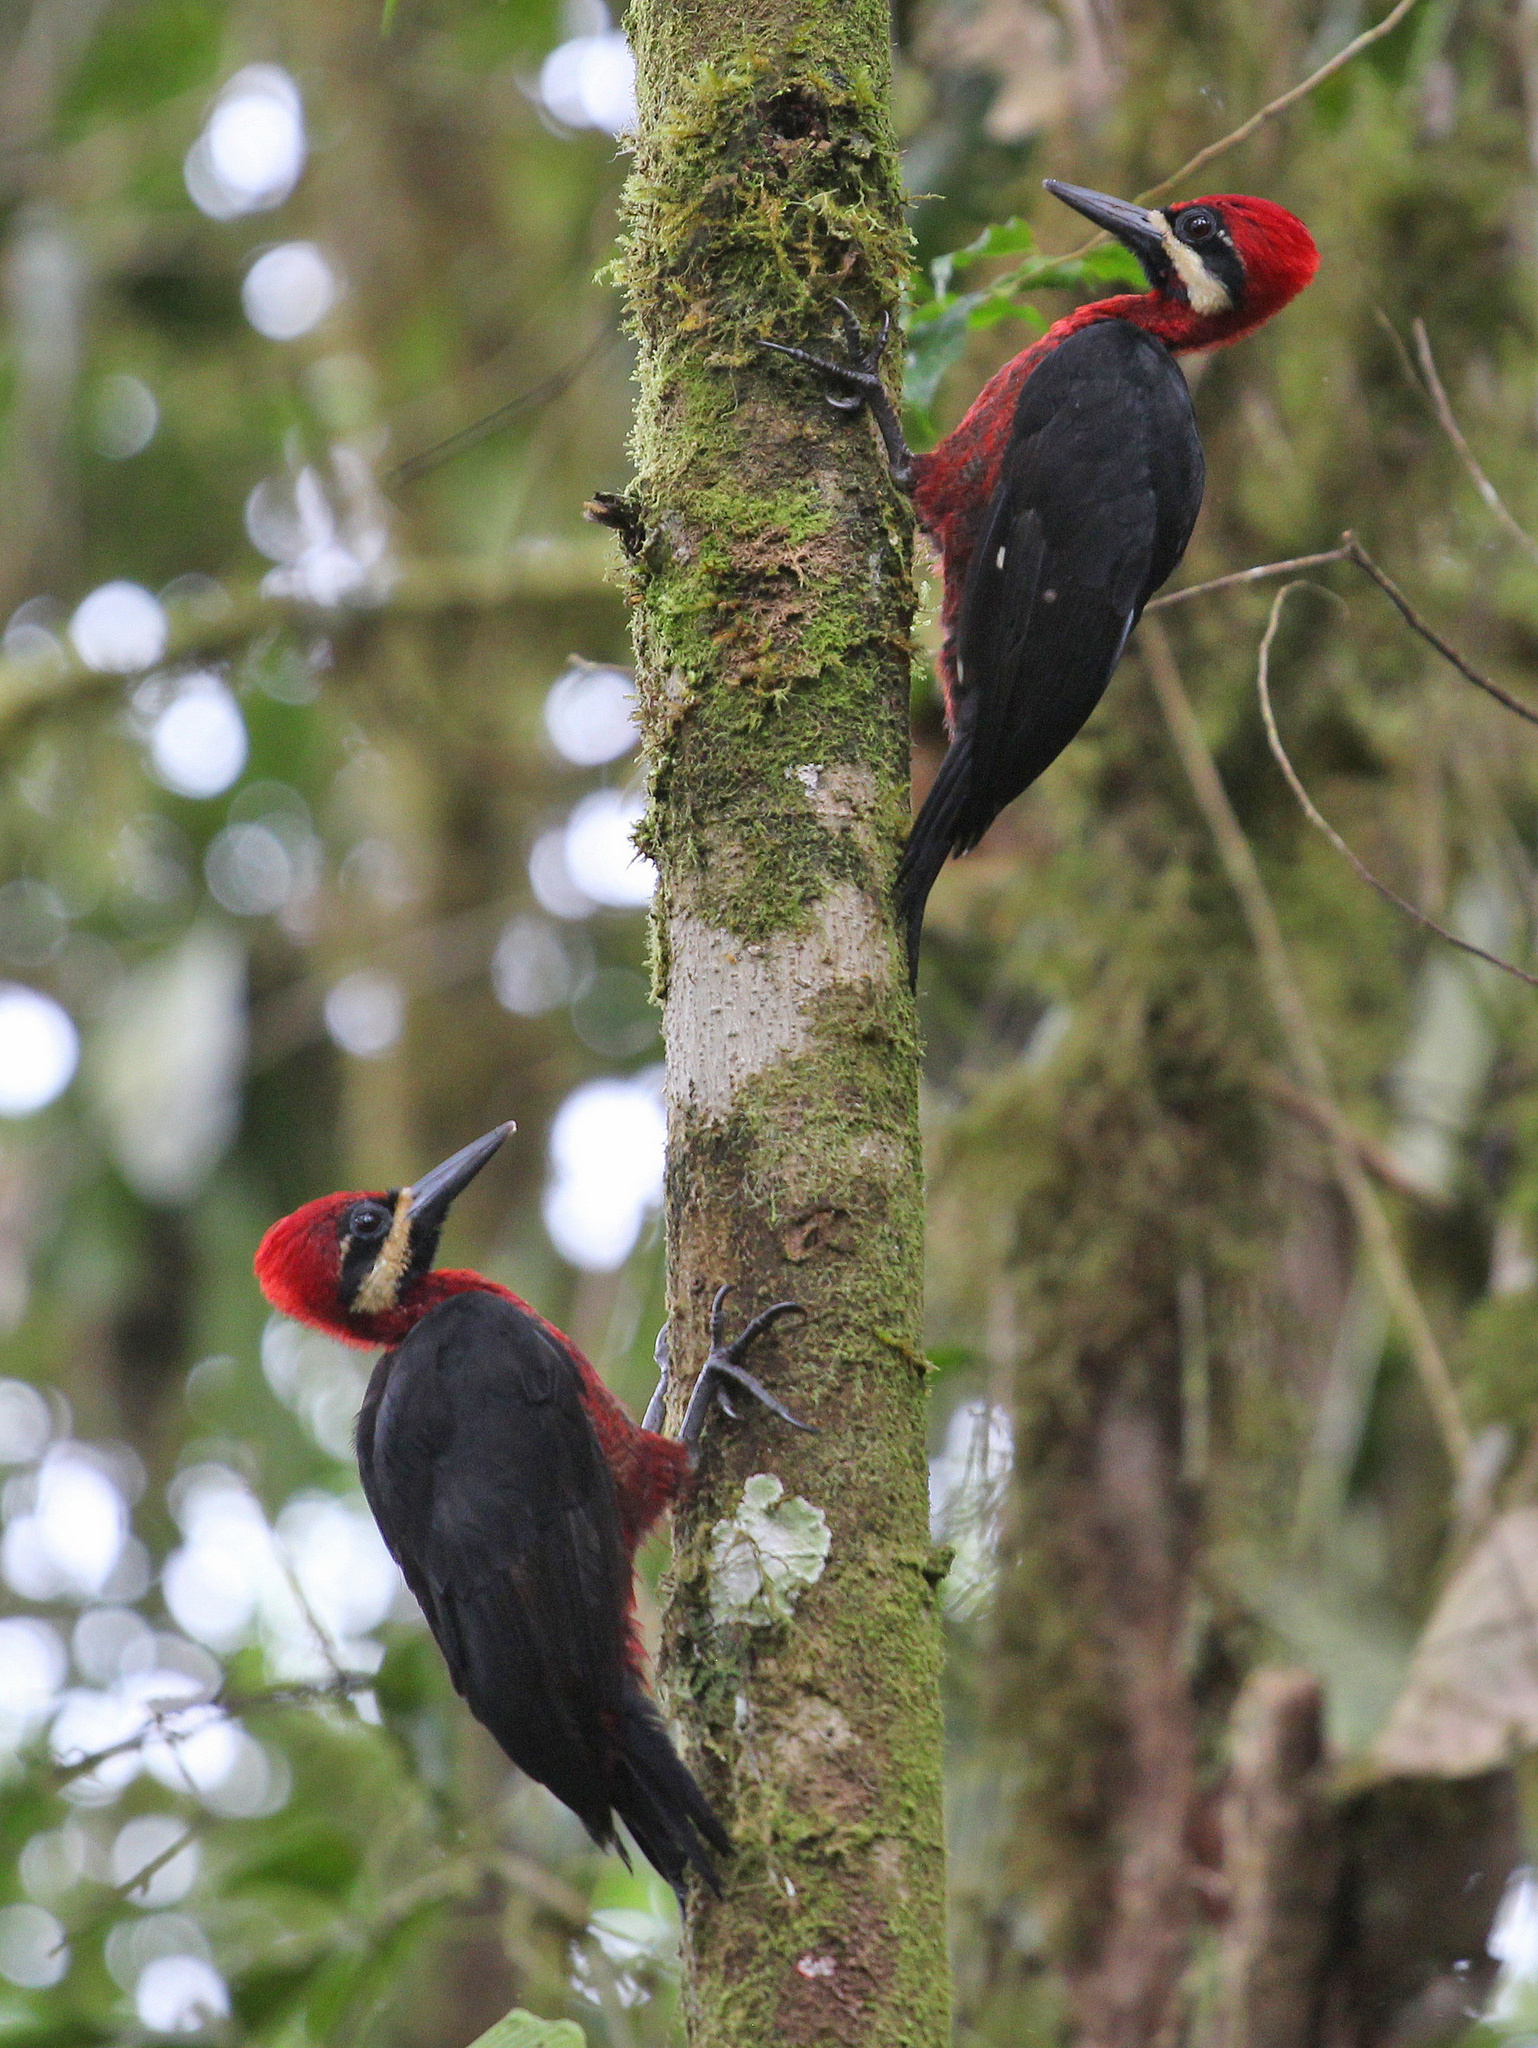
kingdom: Animalia
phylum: Chordata
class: Aves
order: Piciformes
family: Picidae
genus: Campephilus
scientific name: Campephilus haematogaster
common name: Crimson-bellied woodpecker
